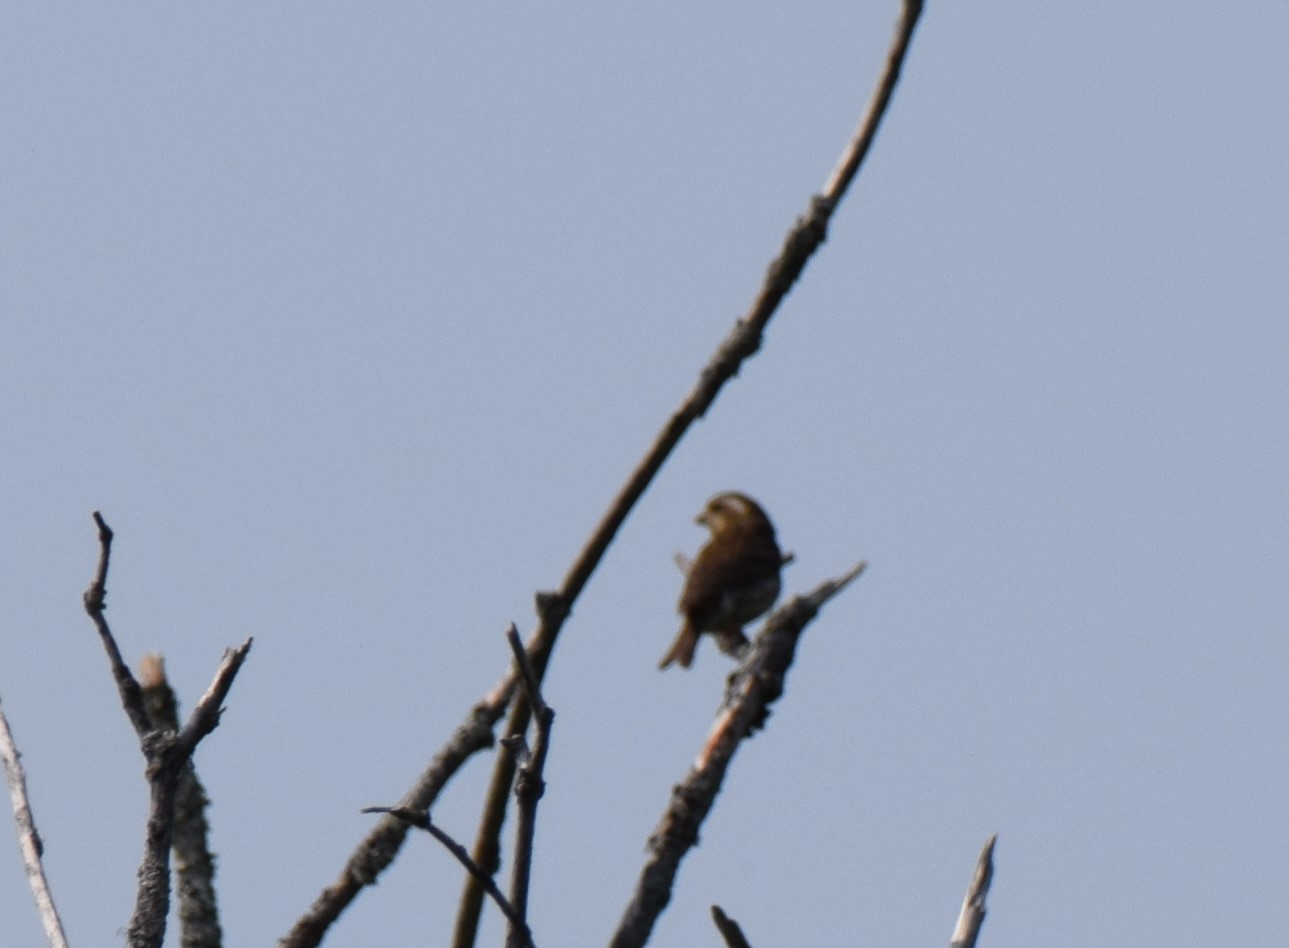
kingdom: Animalia
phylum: Chordata
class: Aves
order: Passeriformes
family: Fringillidae
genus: Haemorhous
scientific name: Haemorhous purpureus
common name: Purple finch
